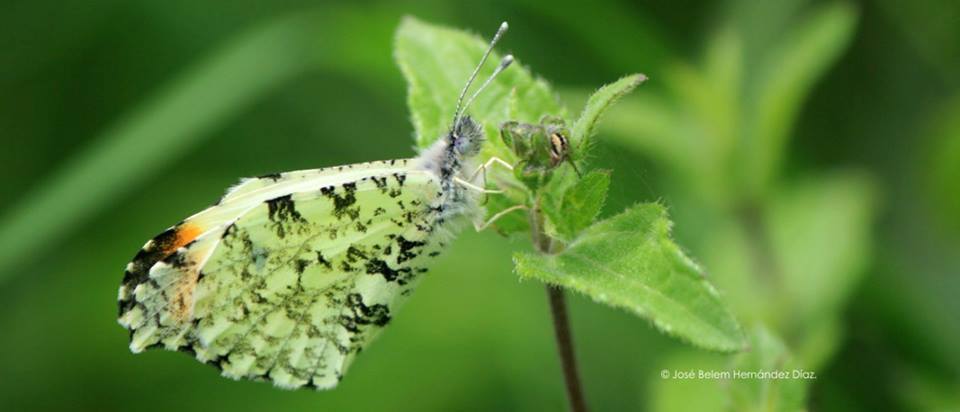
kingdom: Animalia
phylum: Arthropoda
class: Insecta
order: Lepidoptera
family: Pieridae
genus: Anthocharis
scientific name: Anthocharis limonea
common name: Mexican orangetip
